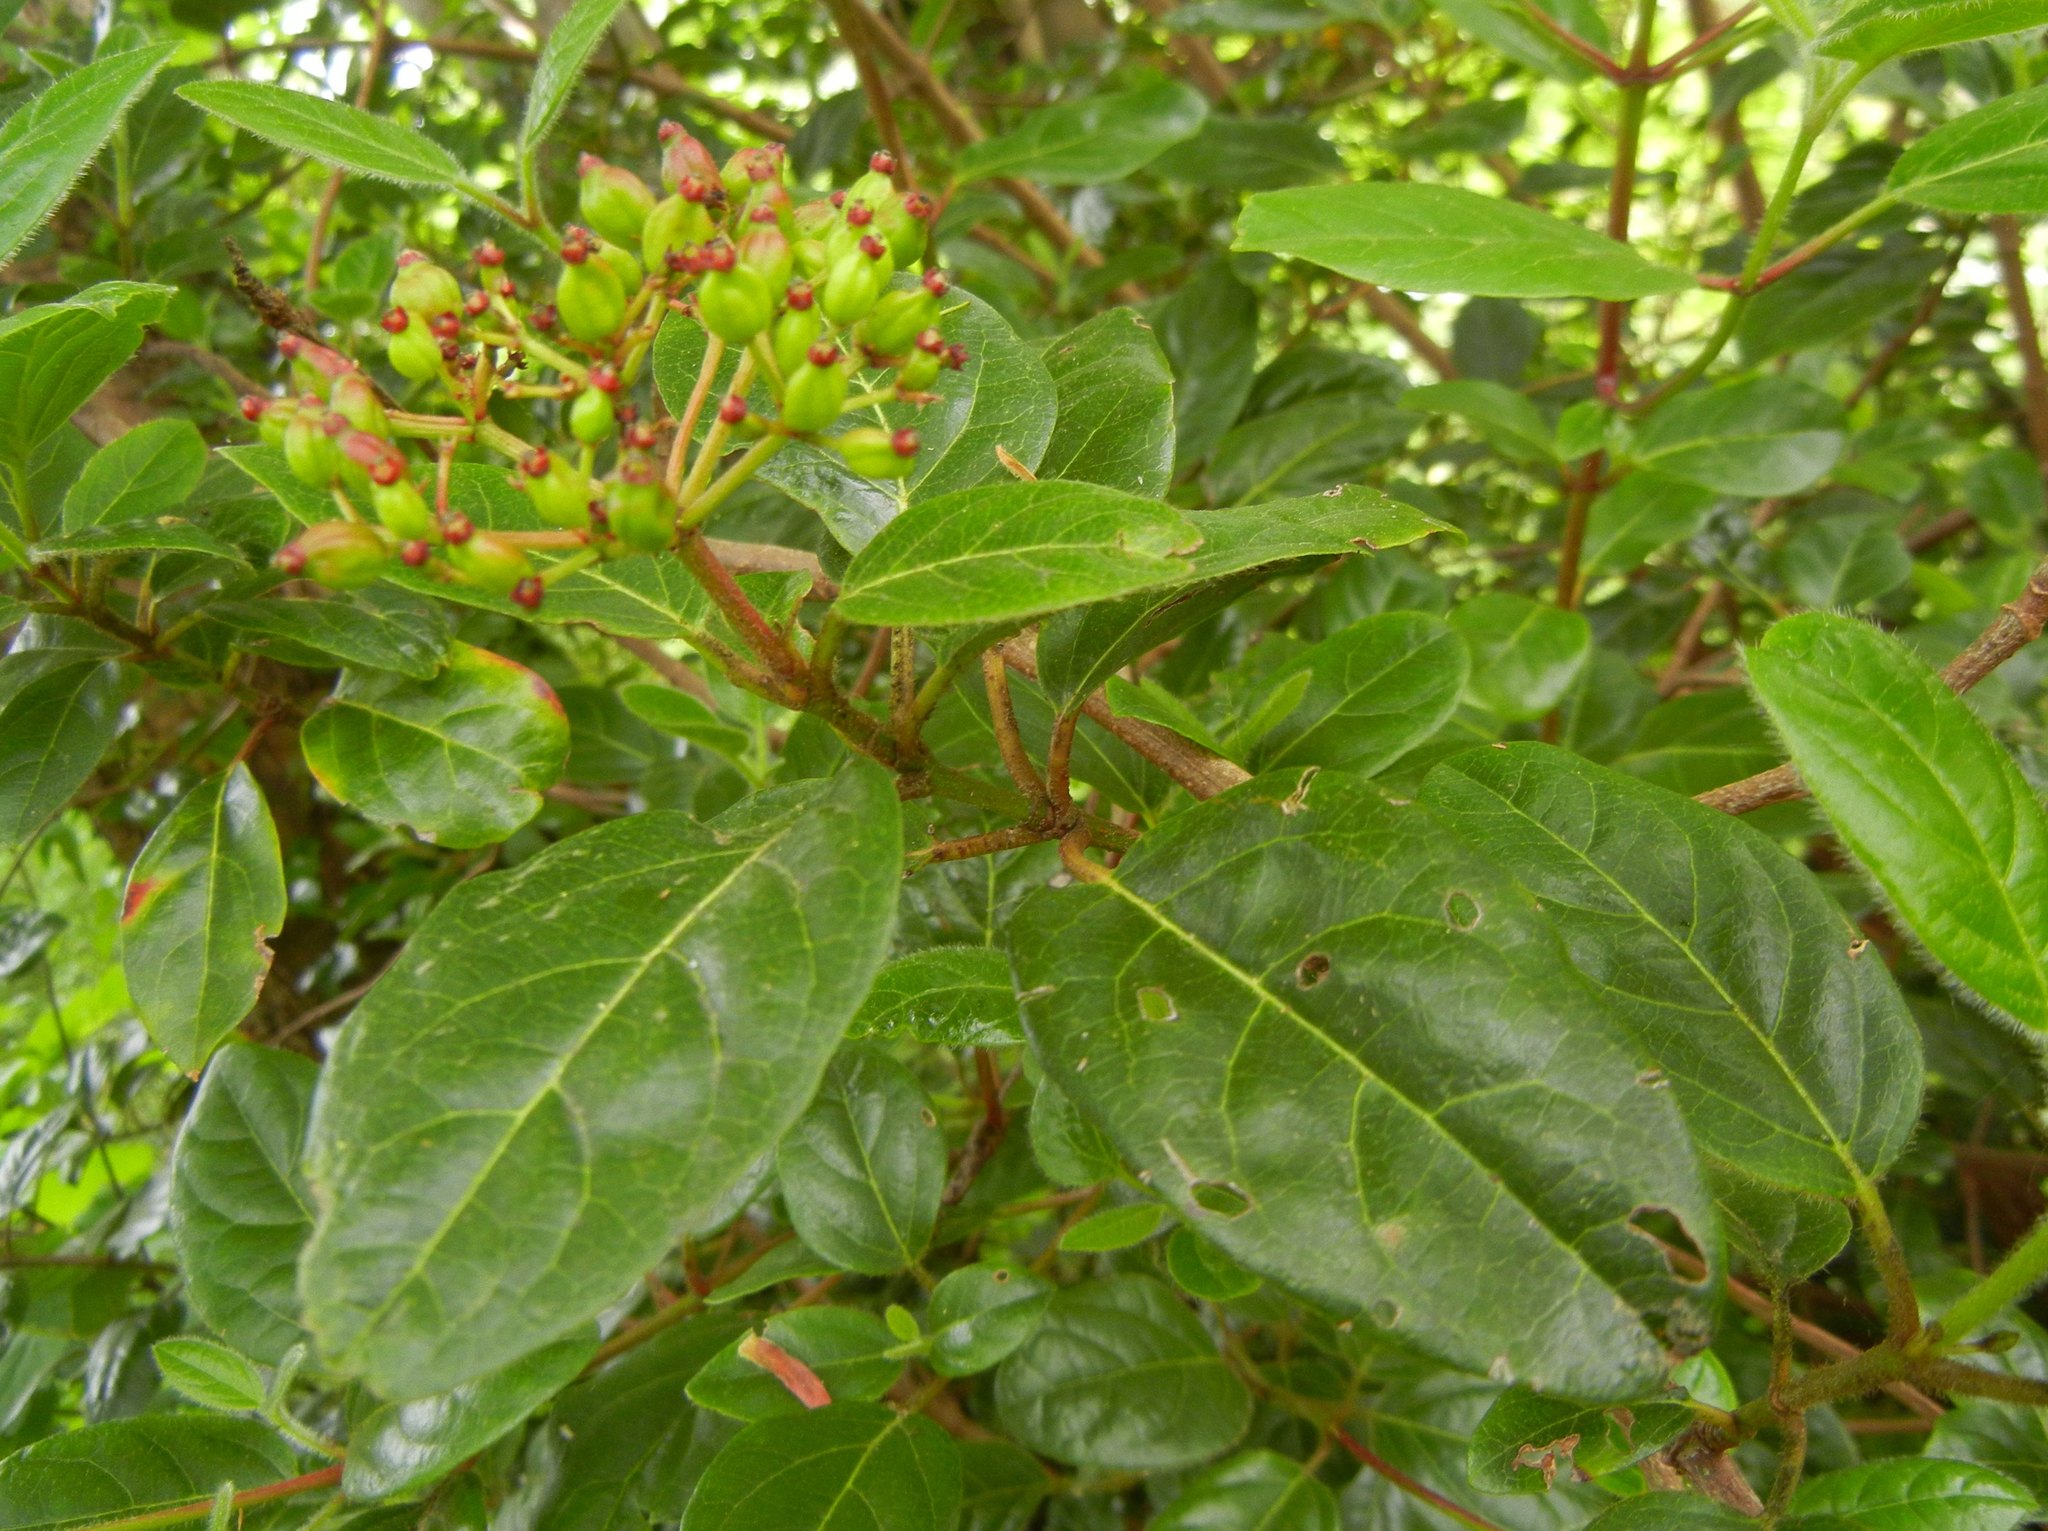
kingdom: Plantae
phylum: Tracheophyta
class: Magnoliopsida
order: Dipsacales
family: Viburnaceae
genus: Viburnum
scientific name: Viburnum tinus
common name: Laurustinus
